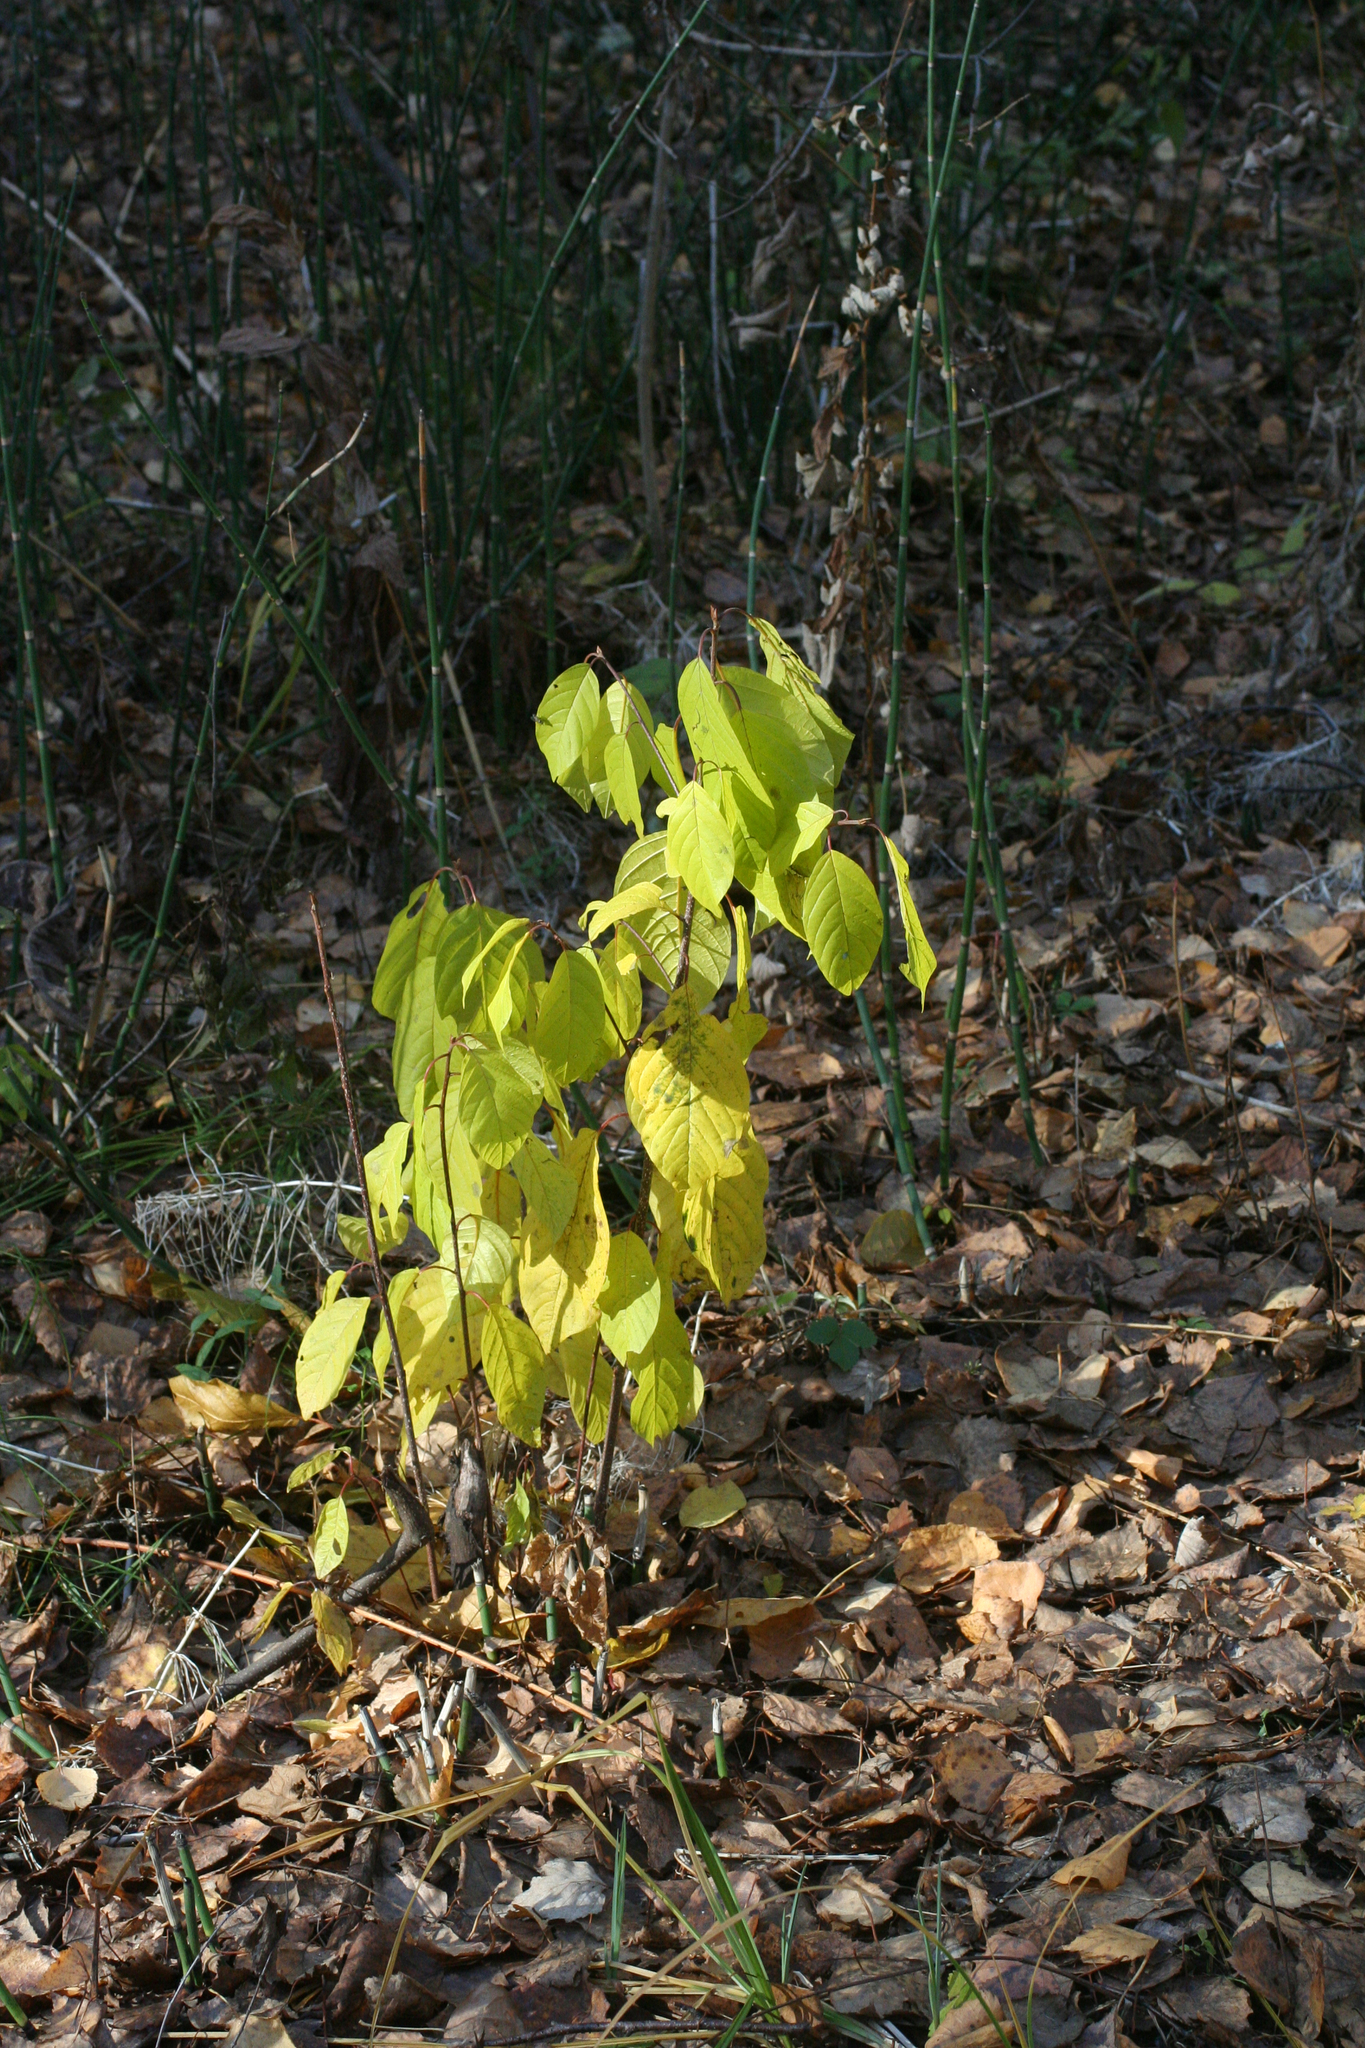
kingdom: Plantae
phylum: Tracheophyta
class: Magnoliopsida
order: Rosales
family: Rhamnaceae
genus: Frangula
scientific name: Frangula alnus
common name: Alder buckthorn
